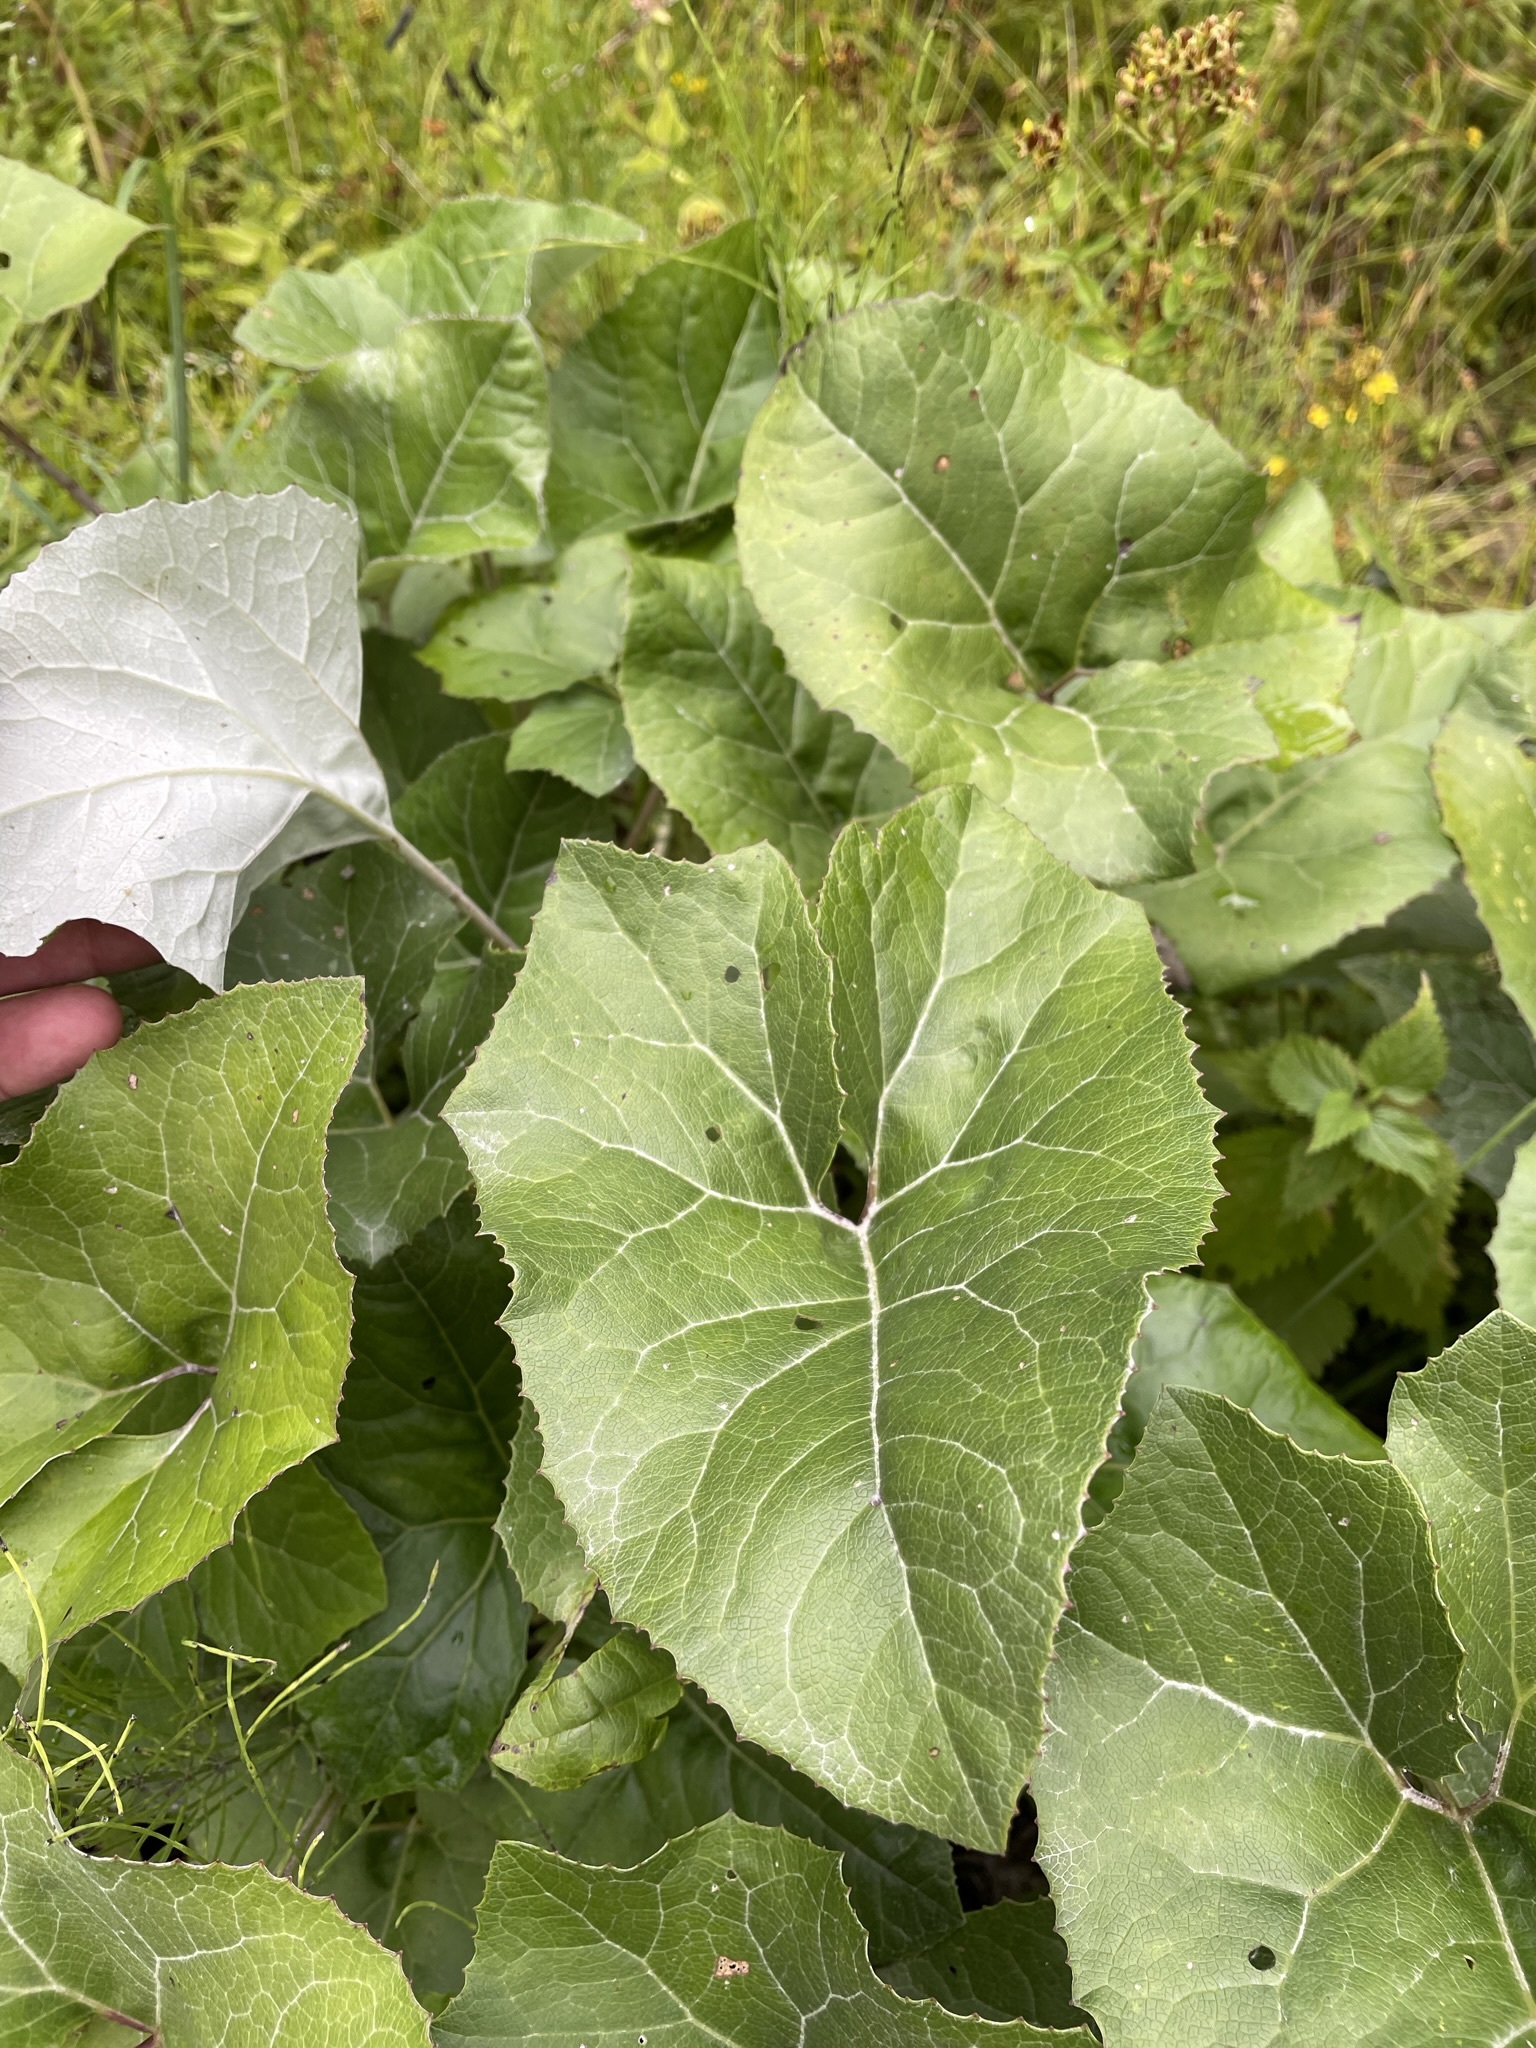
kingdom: Plantae
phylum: Tracheophyta
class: Magnoliopsida
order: Asterales
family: Asteraceae
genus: Petasites
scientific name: Petasites paradoxus
